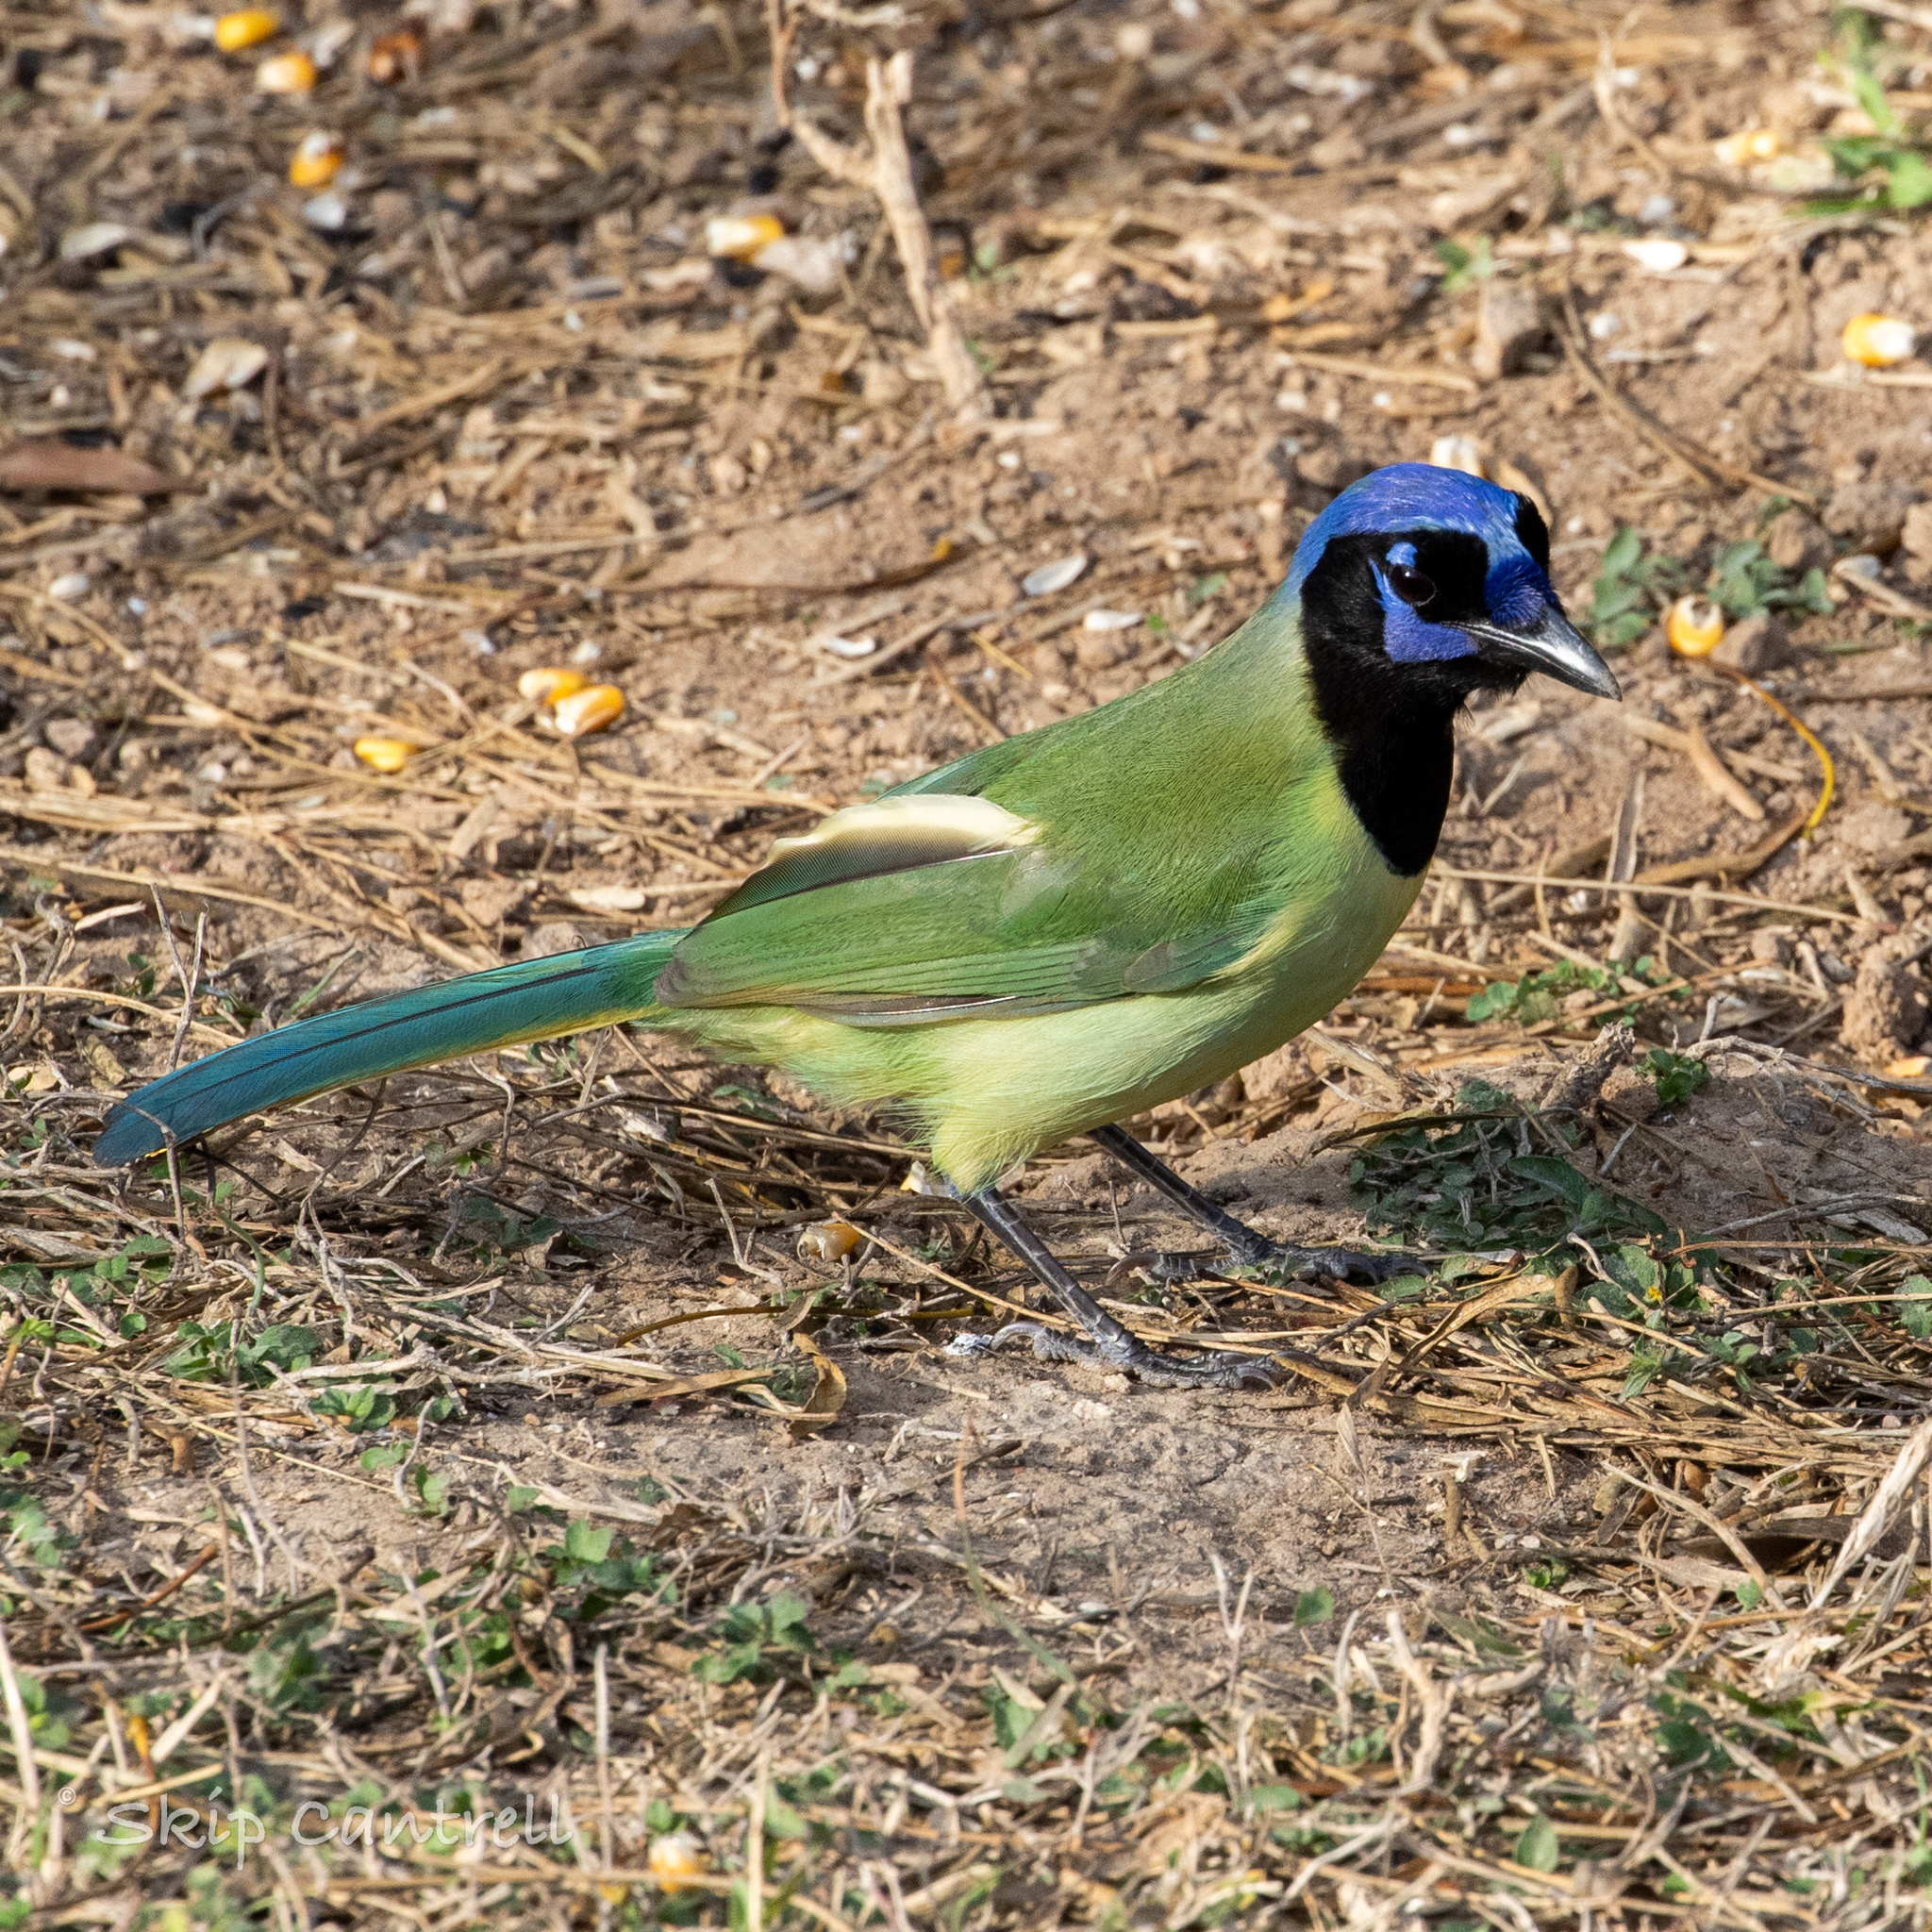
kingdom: Animalia
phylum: Chordata
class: Aves
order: Passeriformes
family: Corvidae
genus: Cyanocorax
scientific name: Cyanocorax yncas
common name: Green jay
